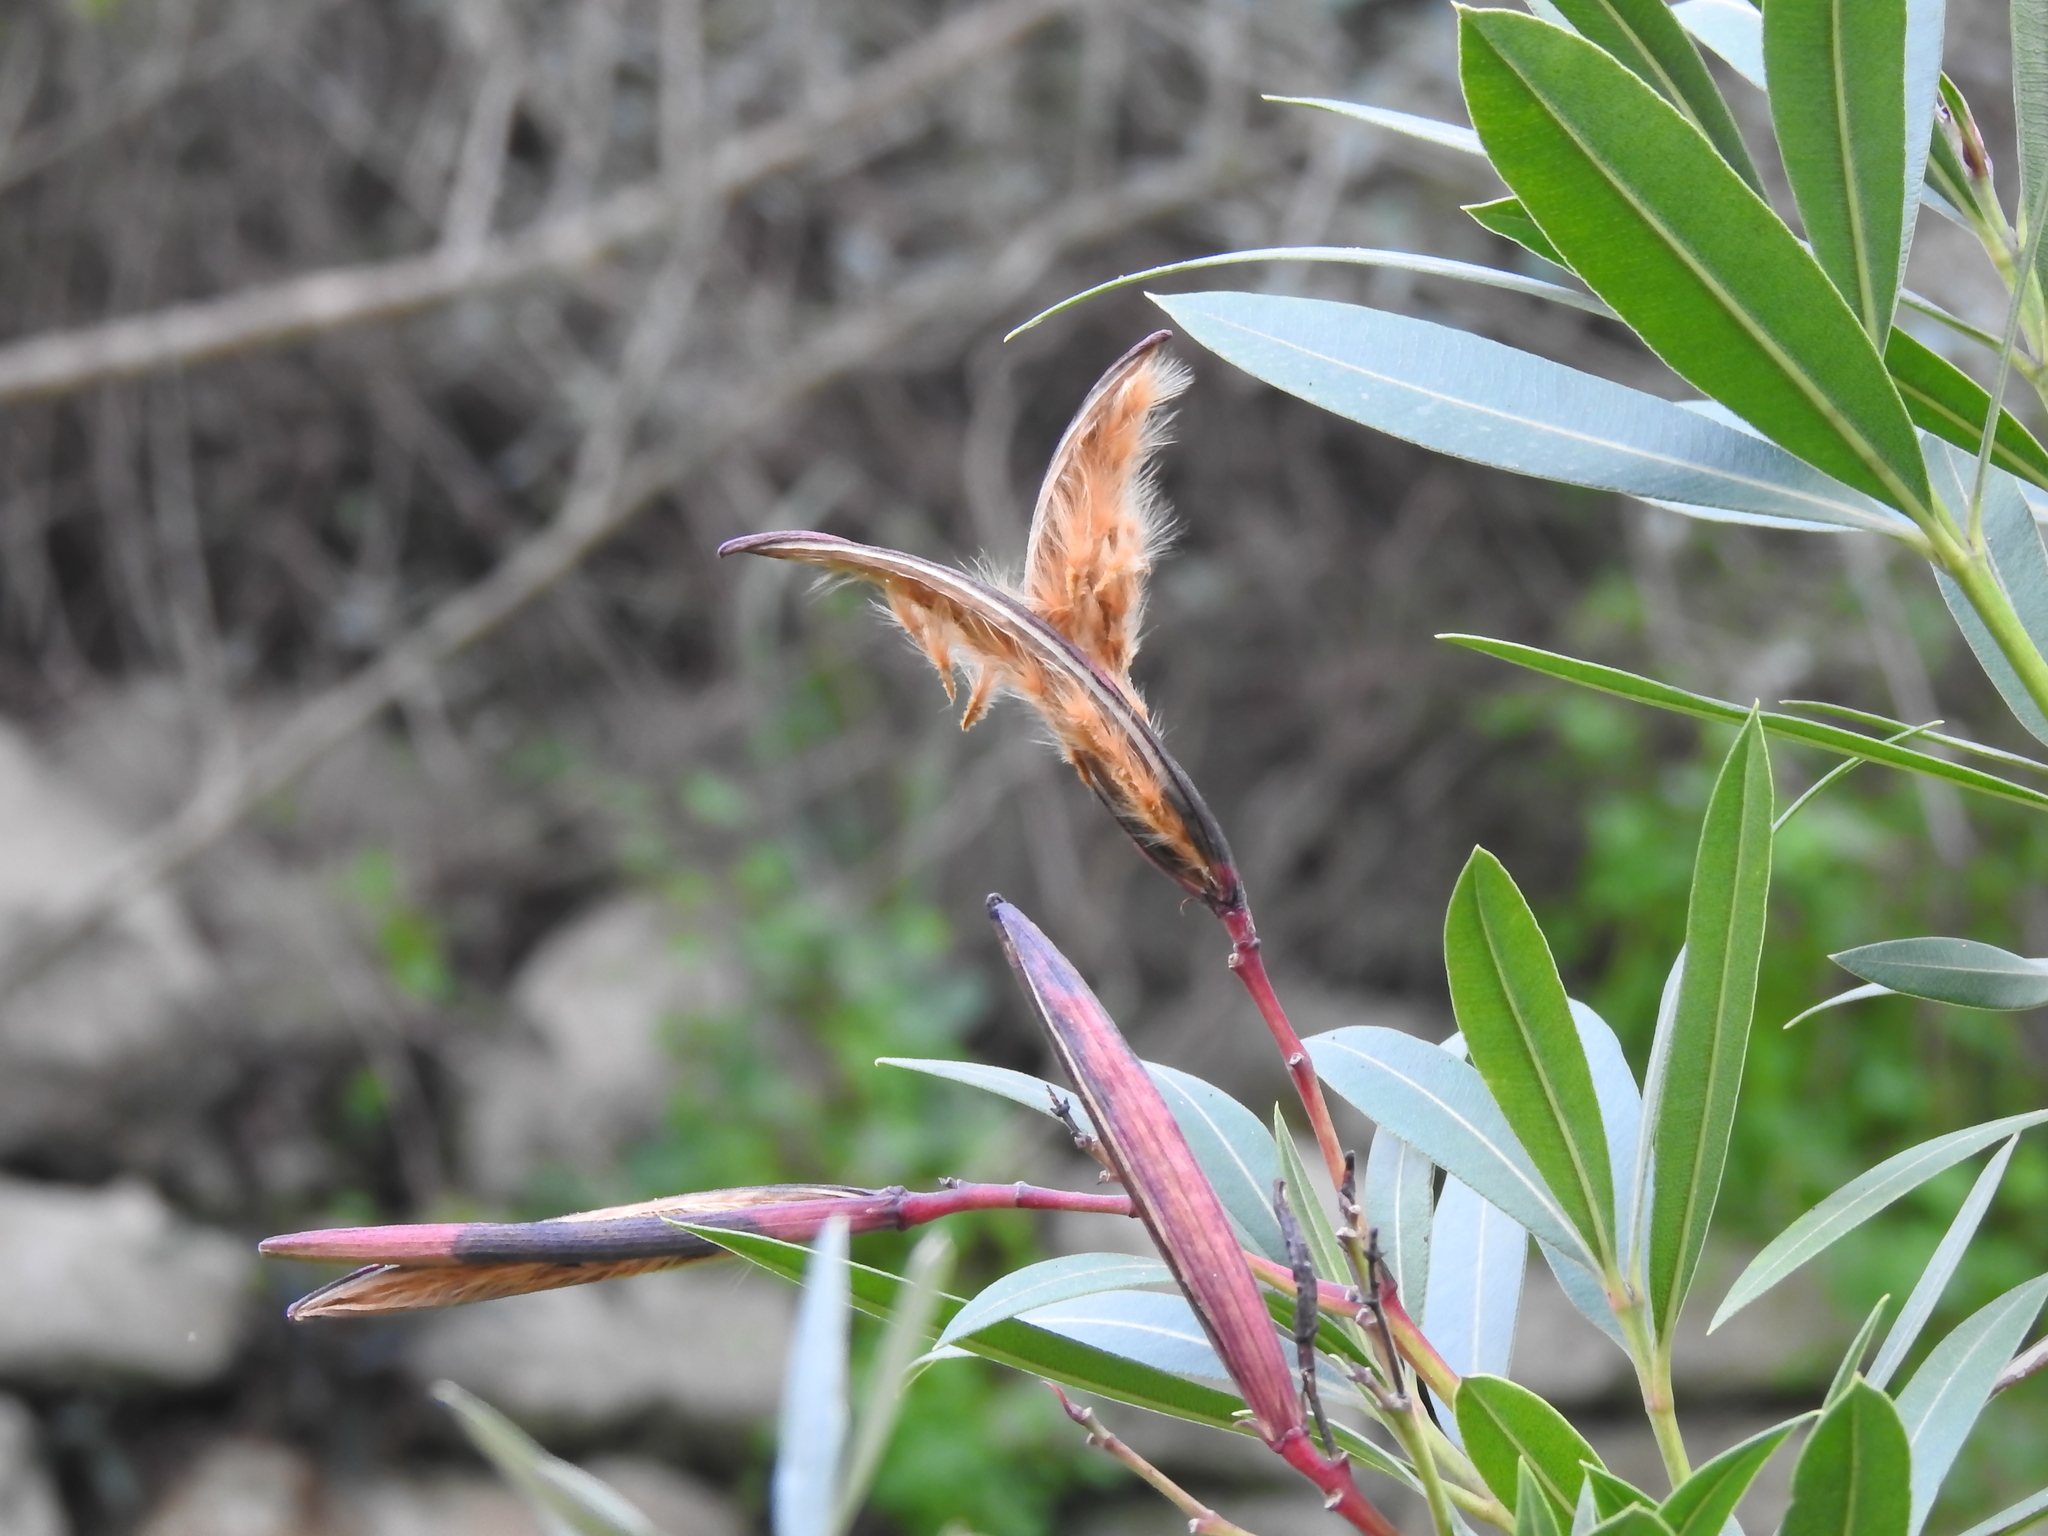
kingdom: Plantae
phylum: Tracheophyta
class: Magnoliopsida
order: Gentianales
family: Apocynaceae
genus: Nerium
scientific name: Nerium oleander
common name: Oleander
